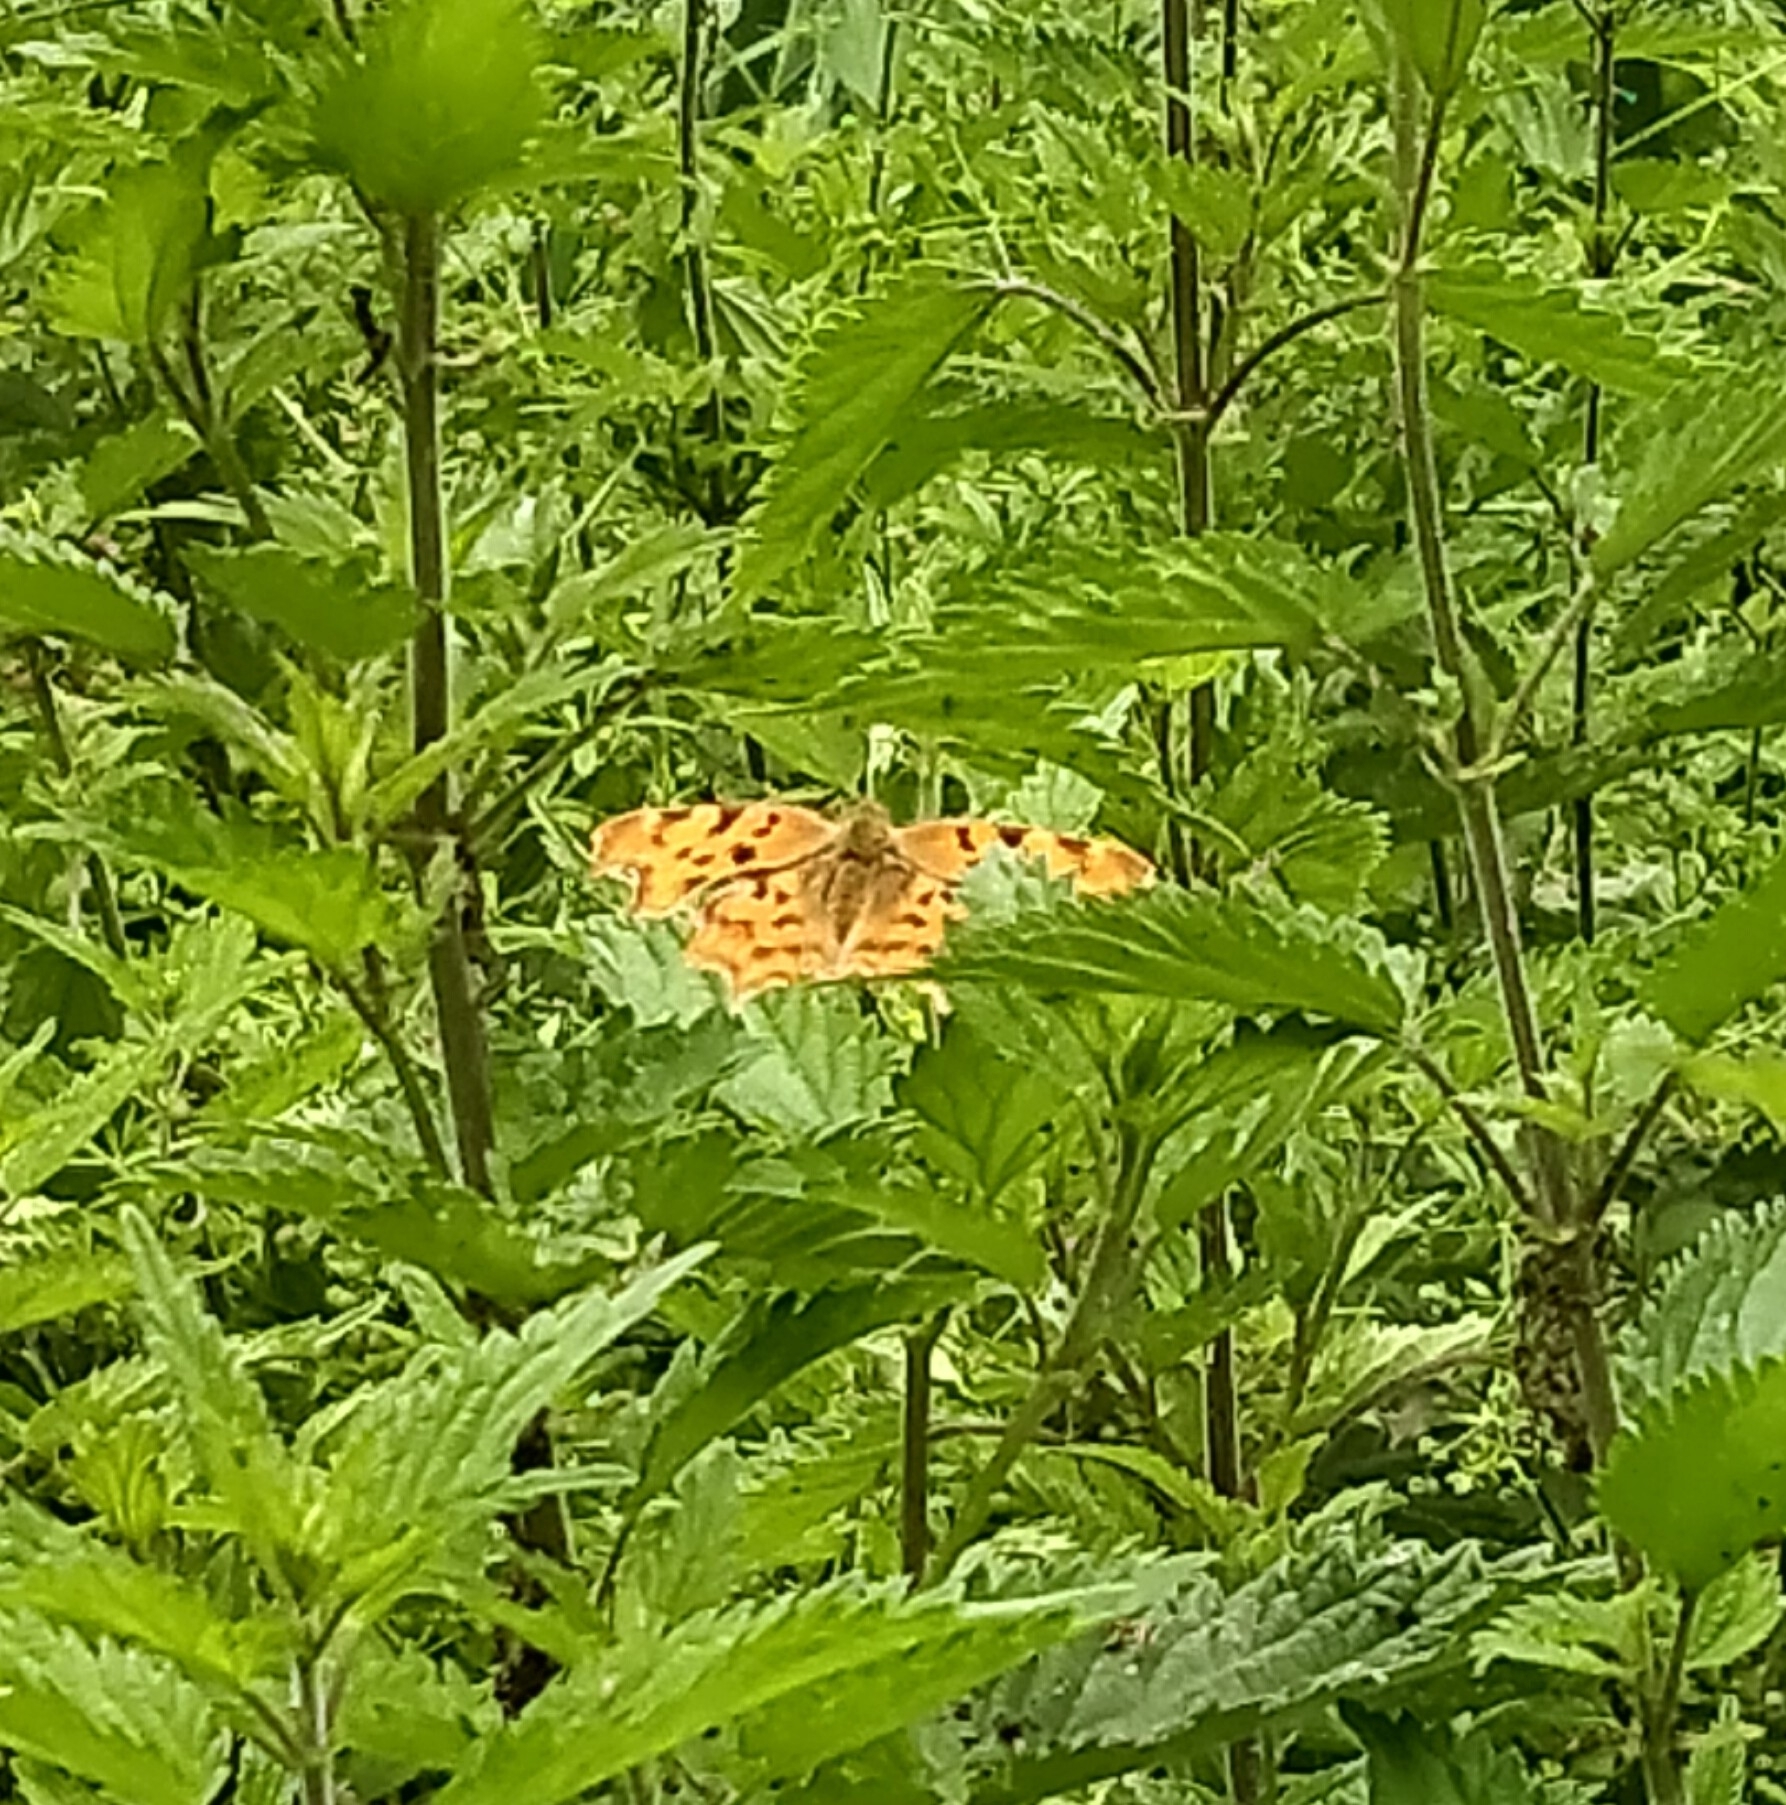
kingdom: Animalia
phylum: Arthropoda
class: Insecta
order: Lepidoptera
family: Nymphalidae
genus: Polygonia
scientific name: Polygonia c-album
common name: Comma
